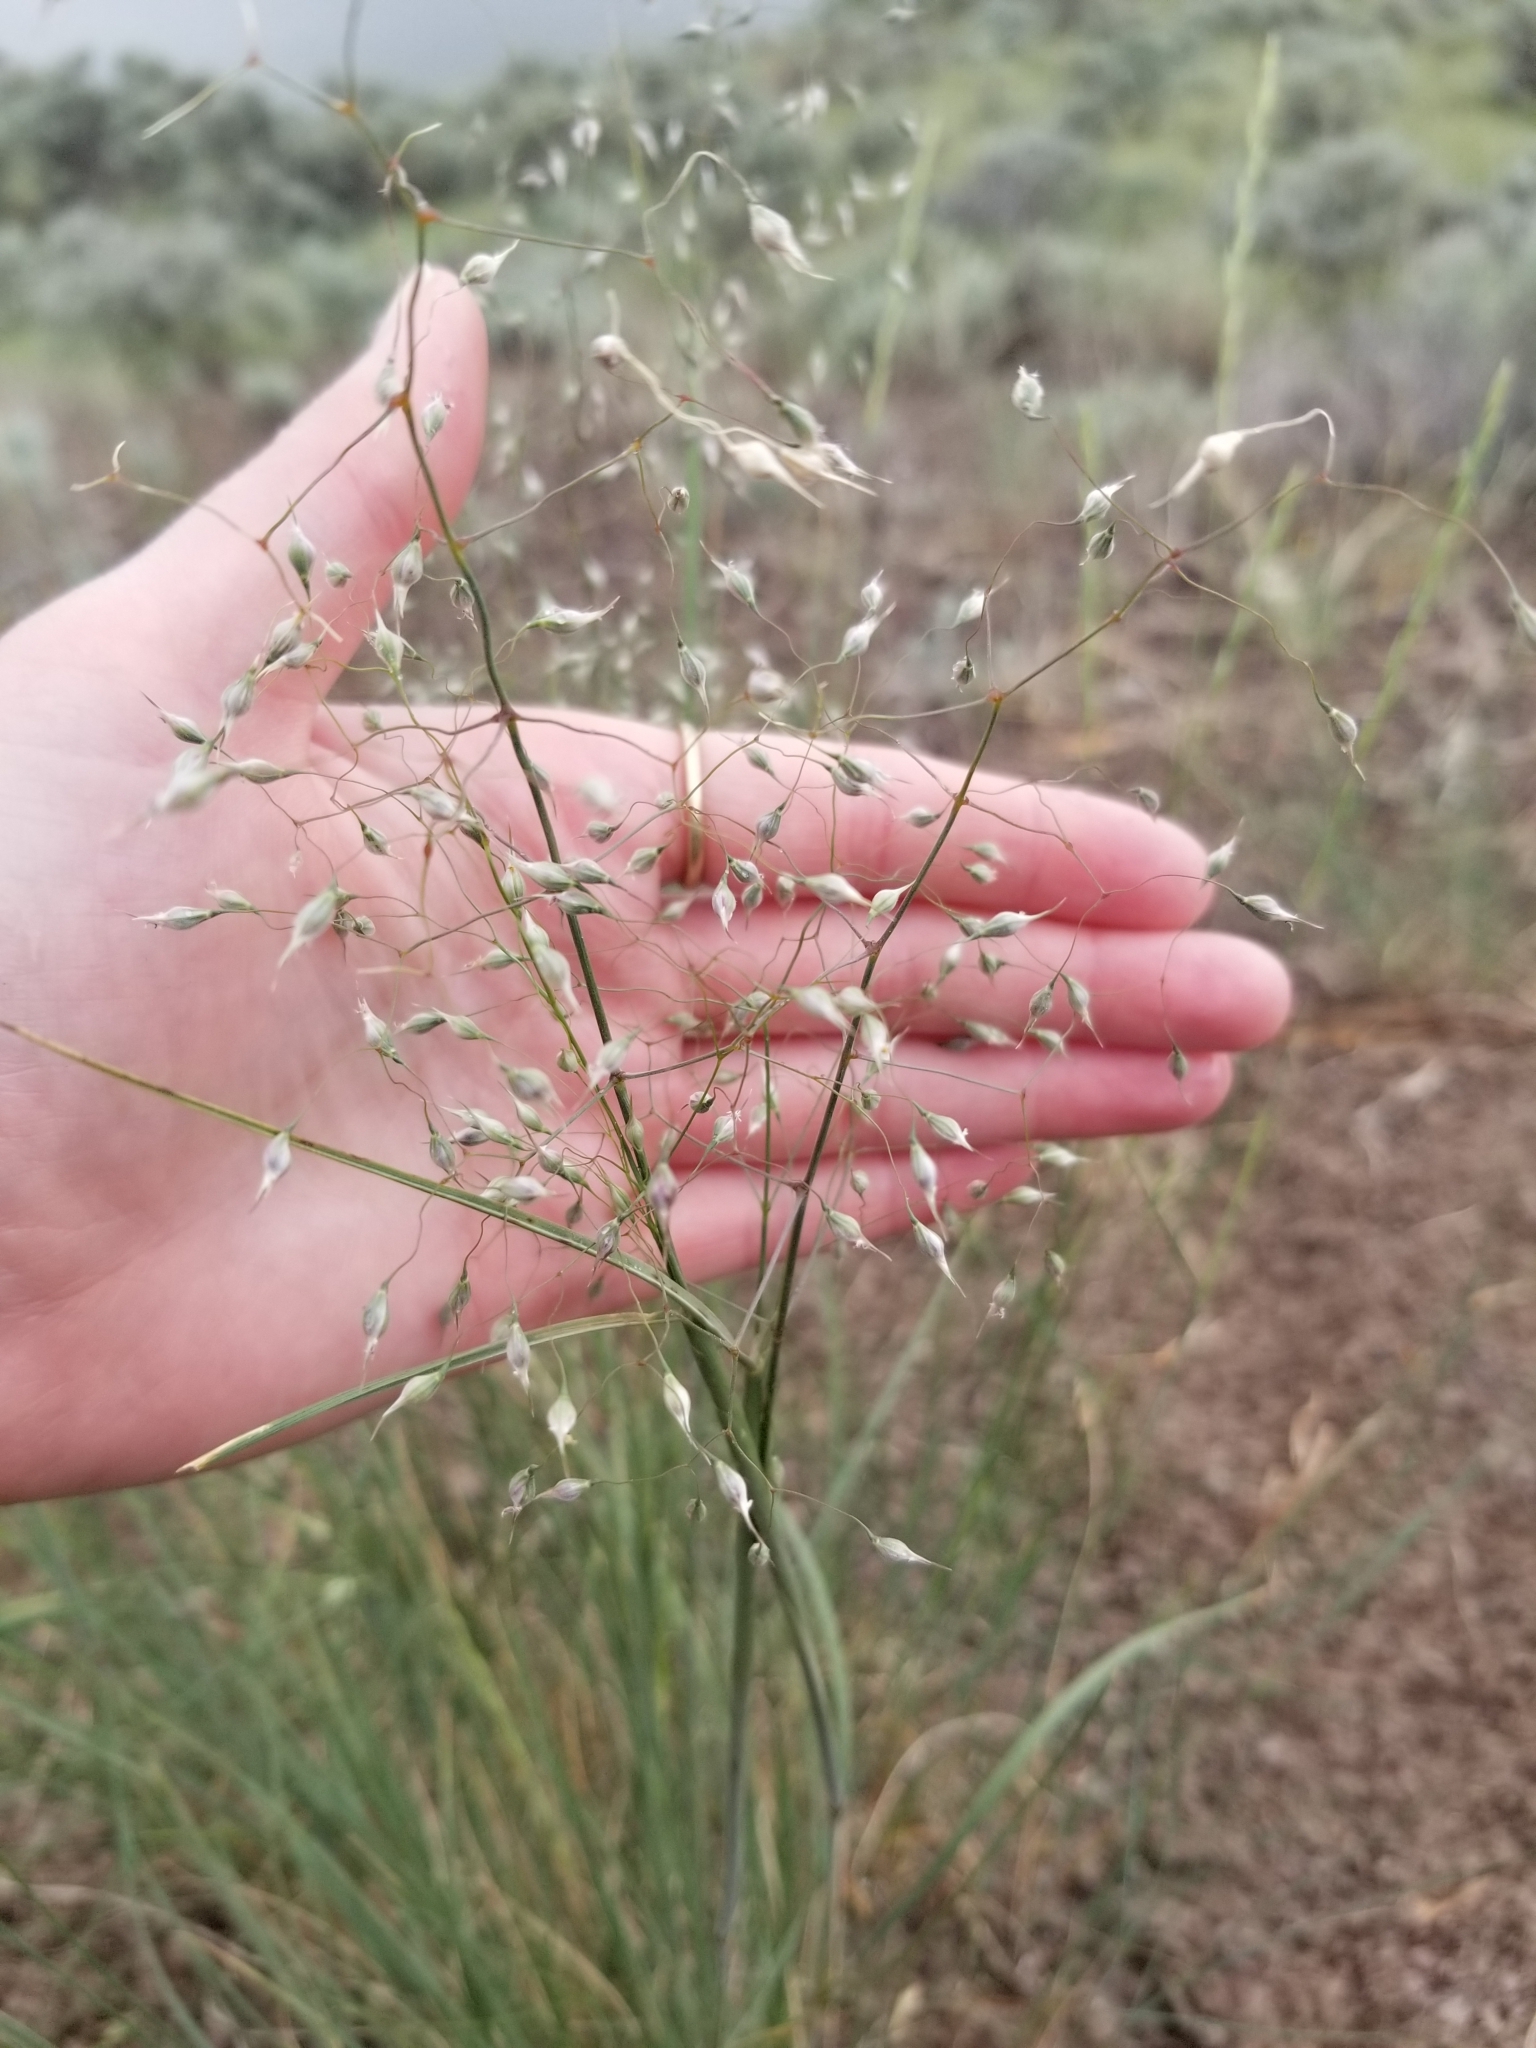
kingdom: Plantae
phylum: Tracheophyta
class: Liliopsida
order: Poales
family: Poaceae
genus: Eriocoma
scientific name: Eriocoma hymenoides
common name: Indian mountain ricegrass
